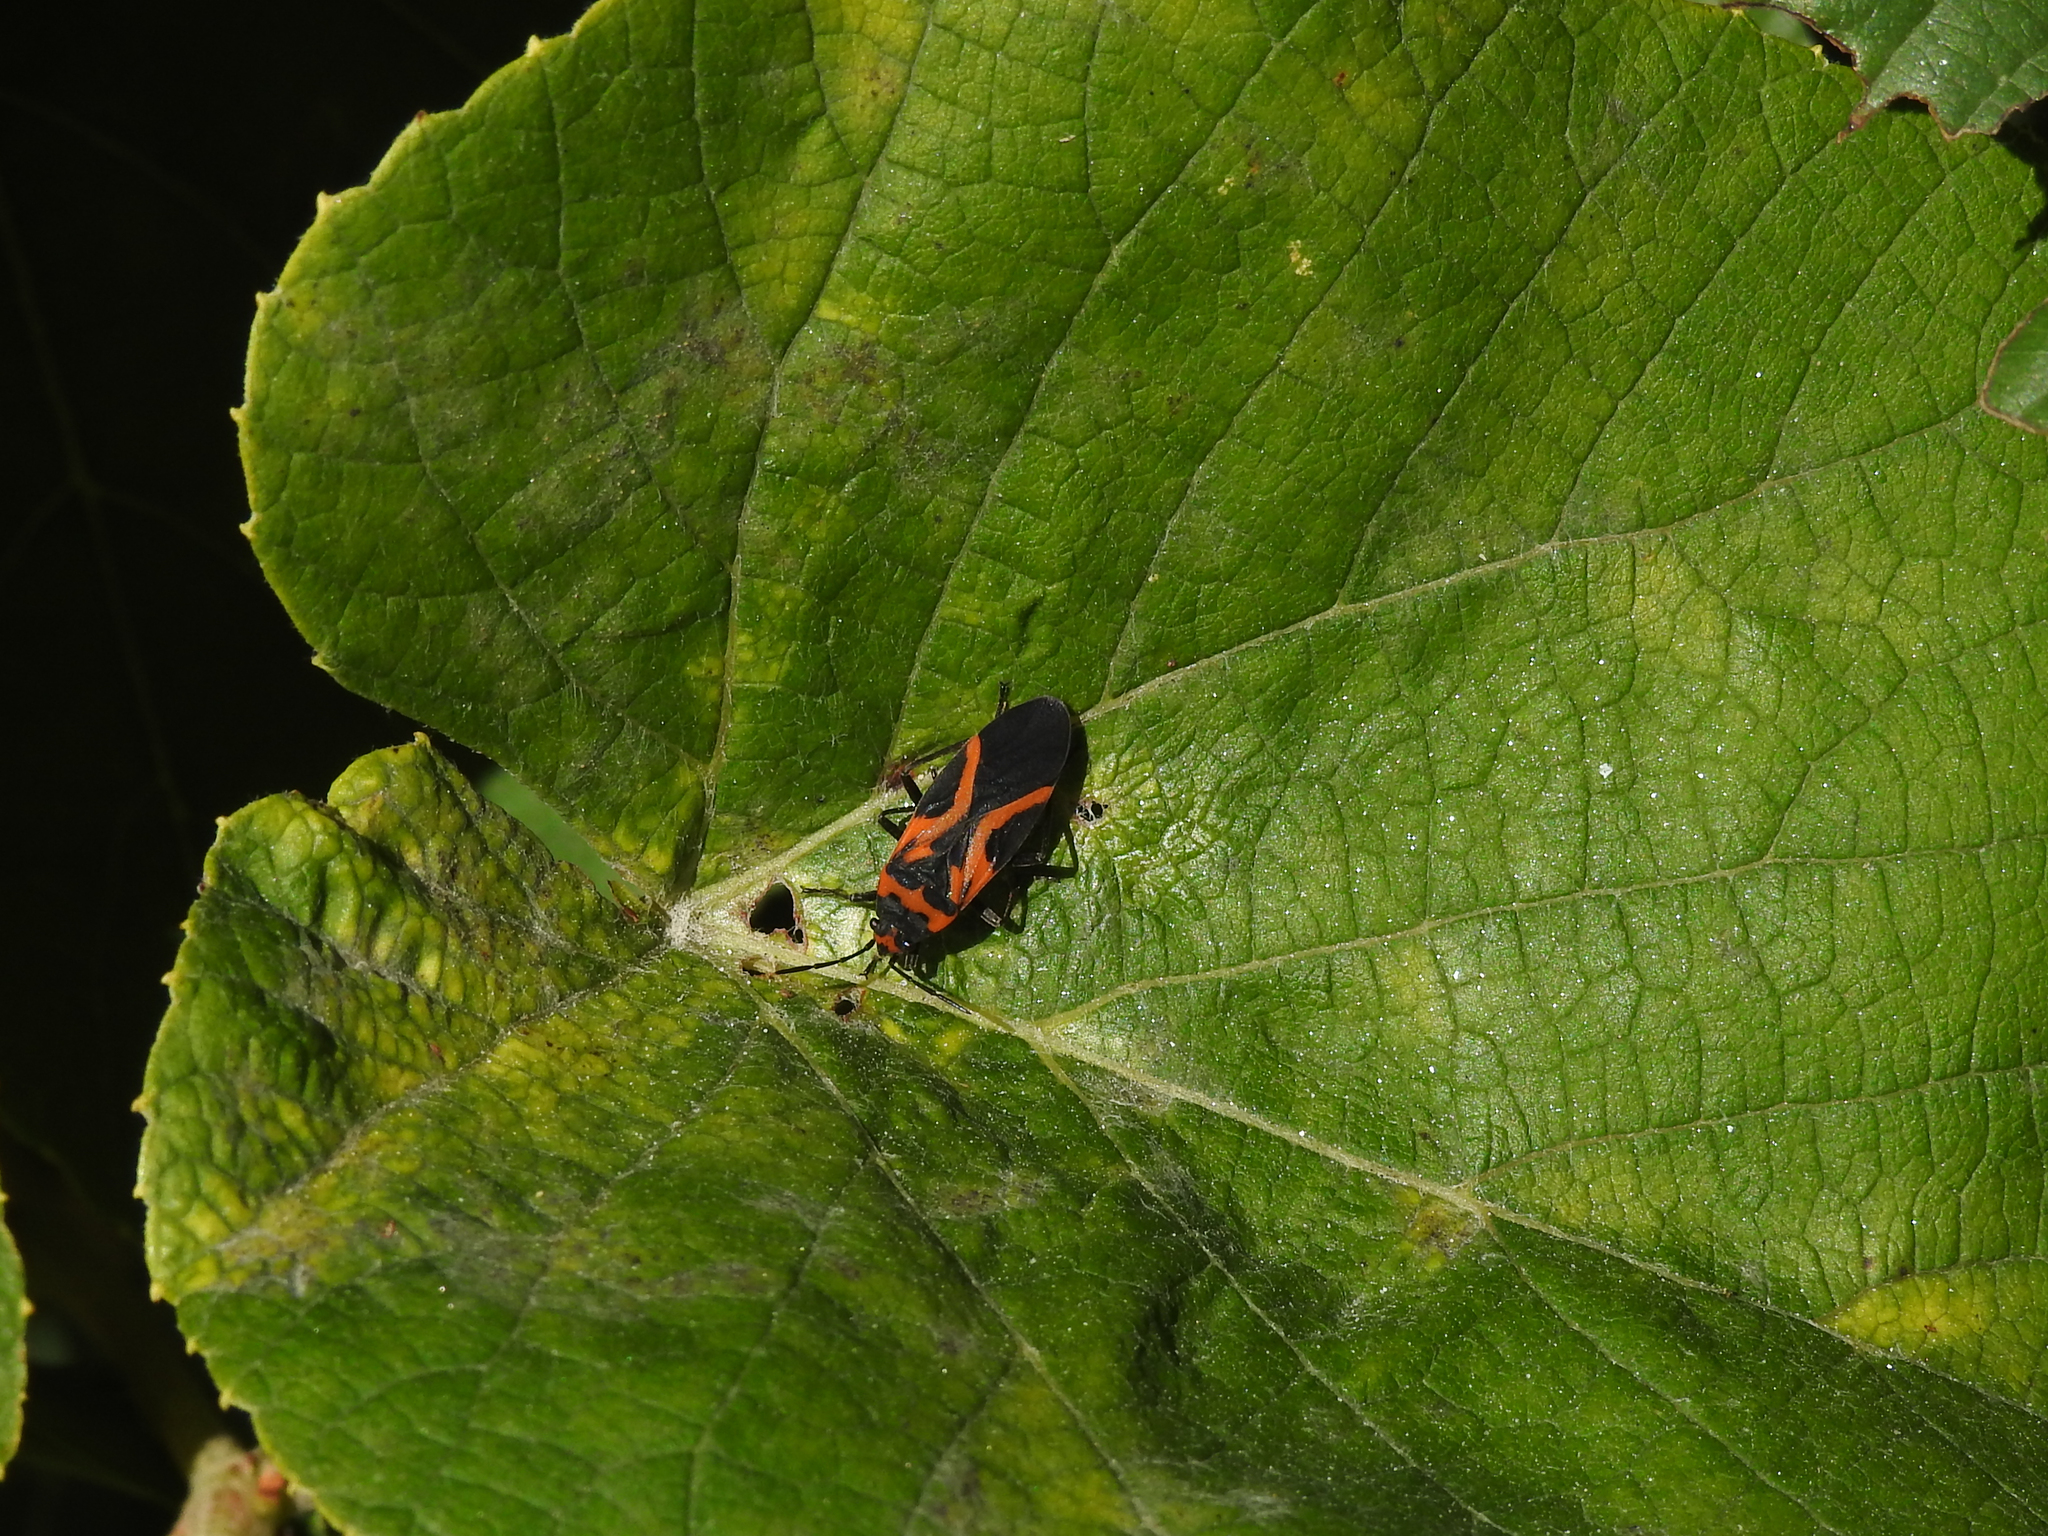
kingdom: Animalia
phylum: Arthropoda
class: Insecta
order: Hemiptera
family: Lygaeidae
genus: Lygaeus
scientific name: Lygaeus turcicus
